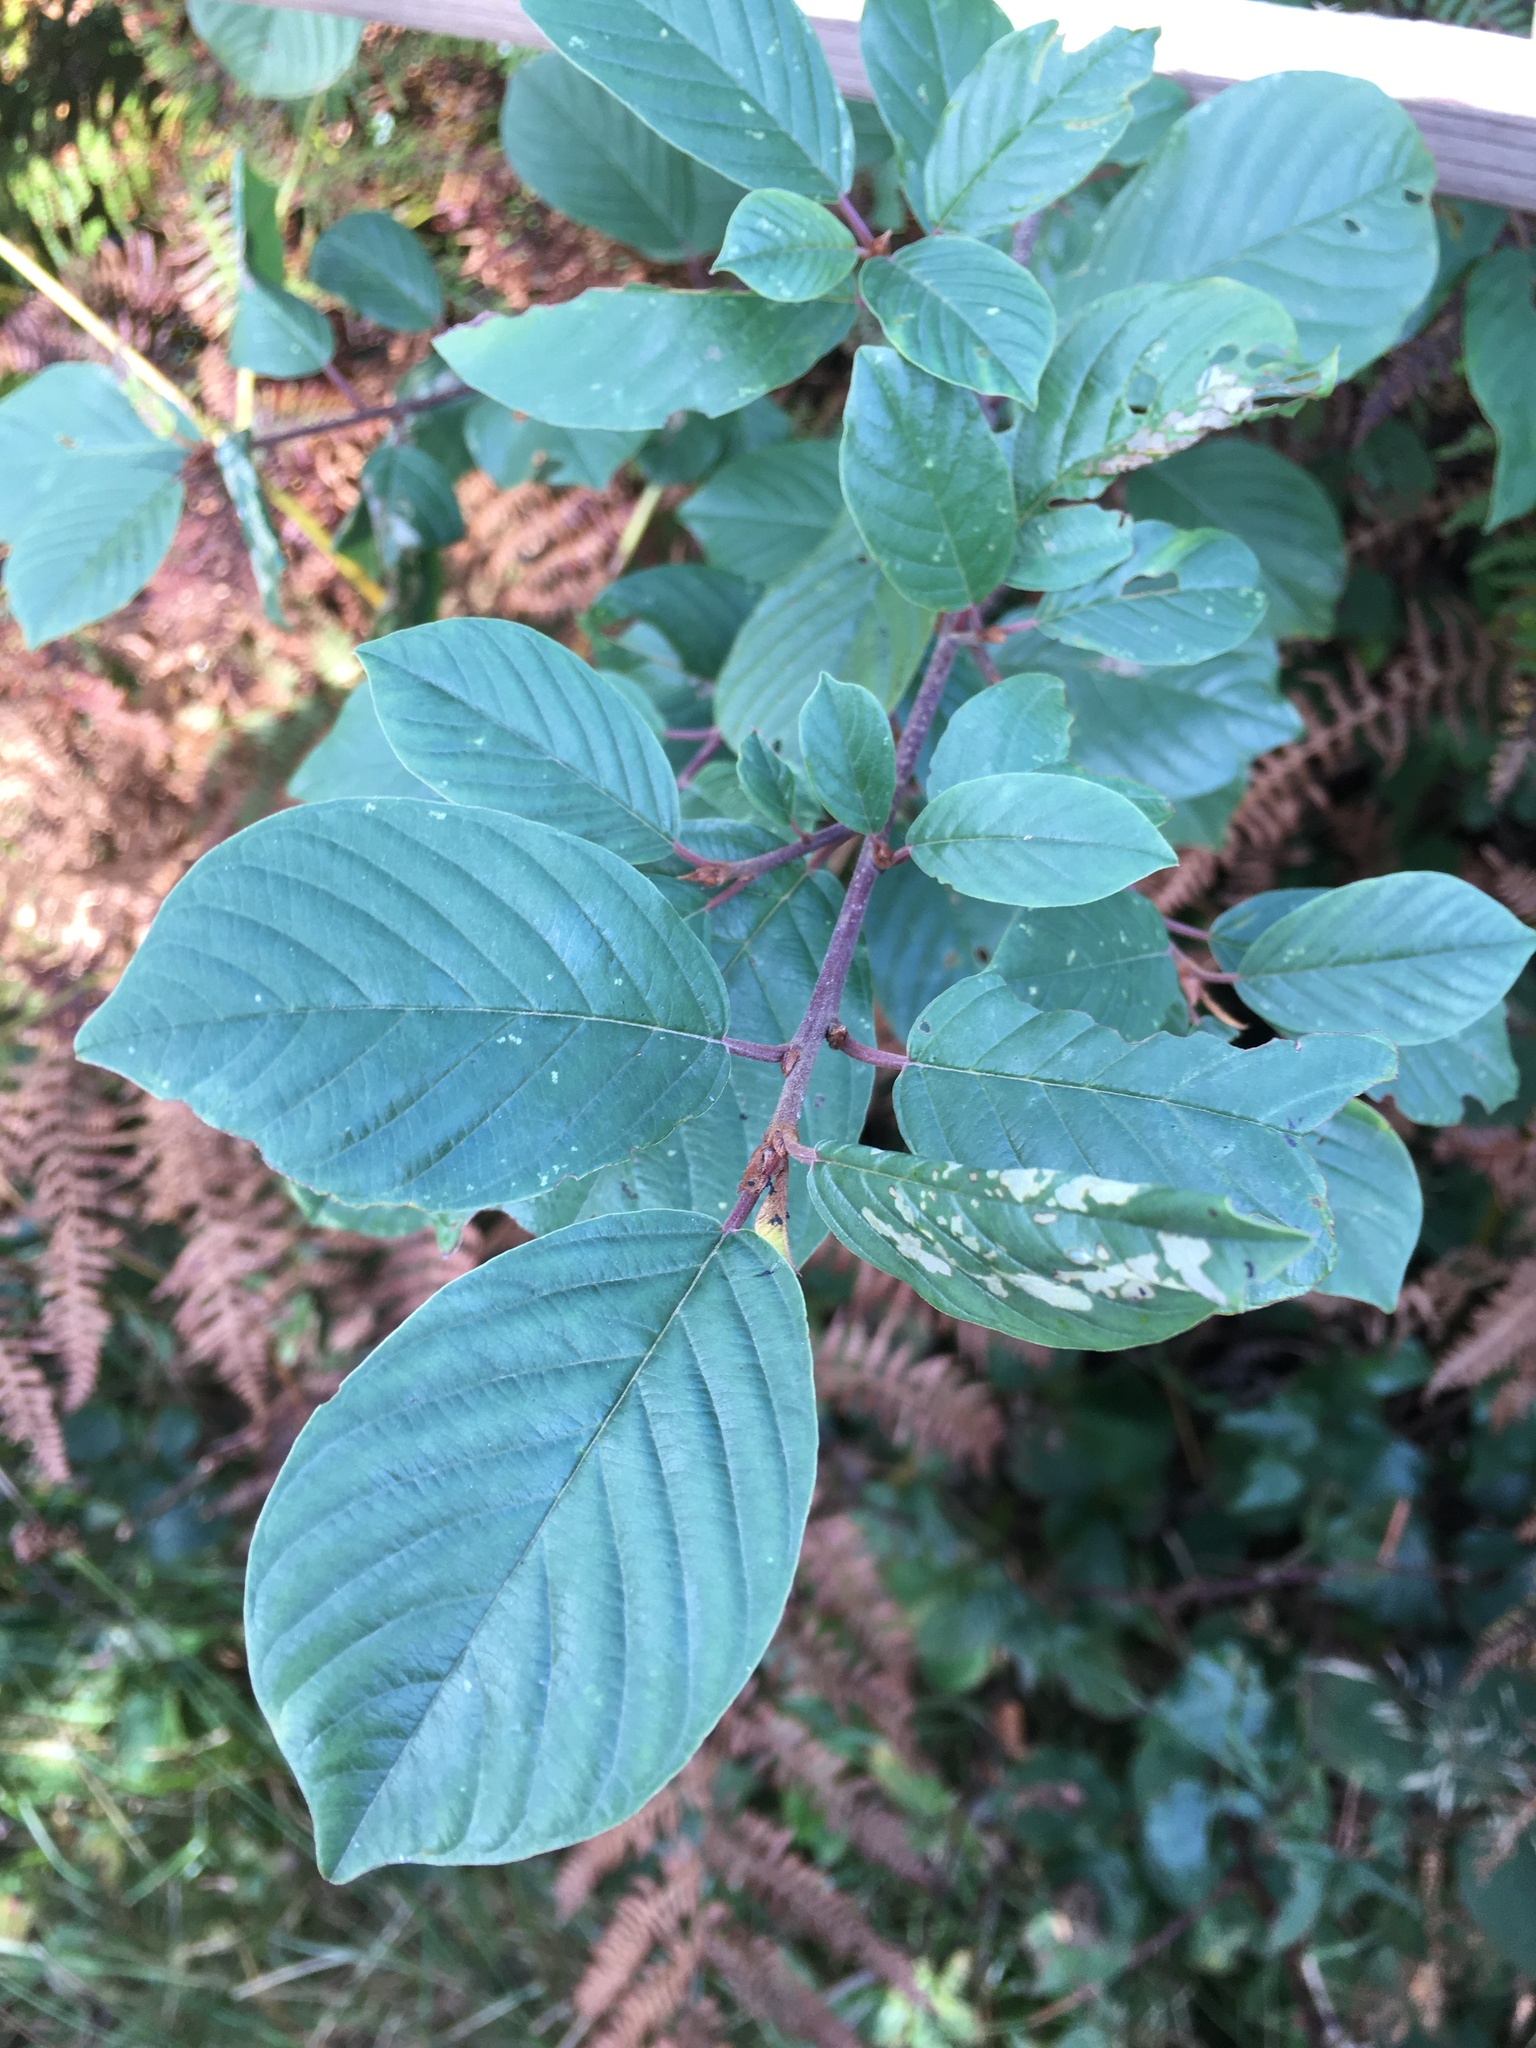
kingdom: Plantae
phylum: Tracheophyta
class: Magnoliopsida
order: Rosales
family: Rhamnaceae
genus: Frangula
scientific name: Frangula alnus
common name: Alder buckthorn
